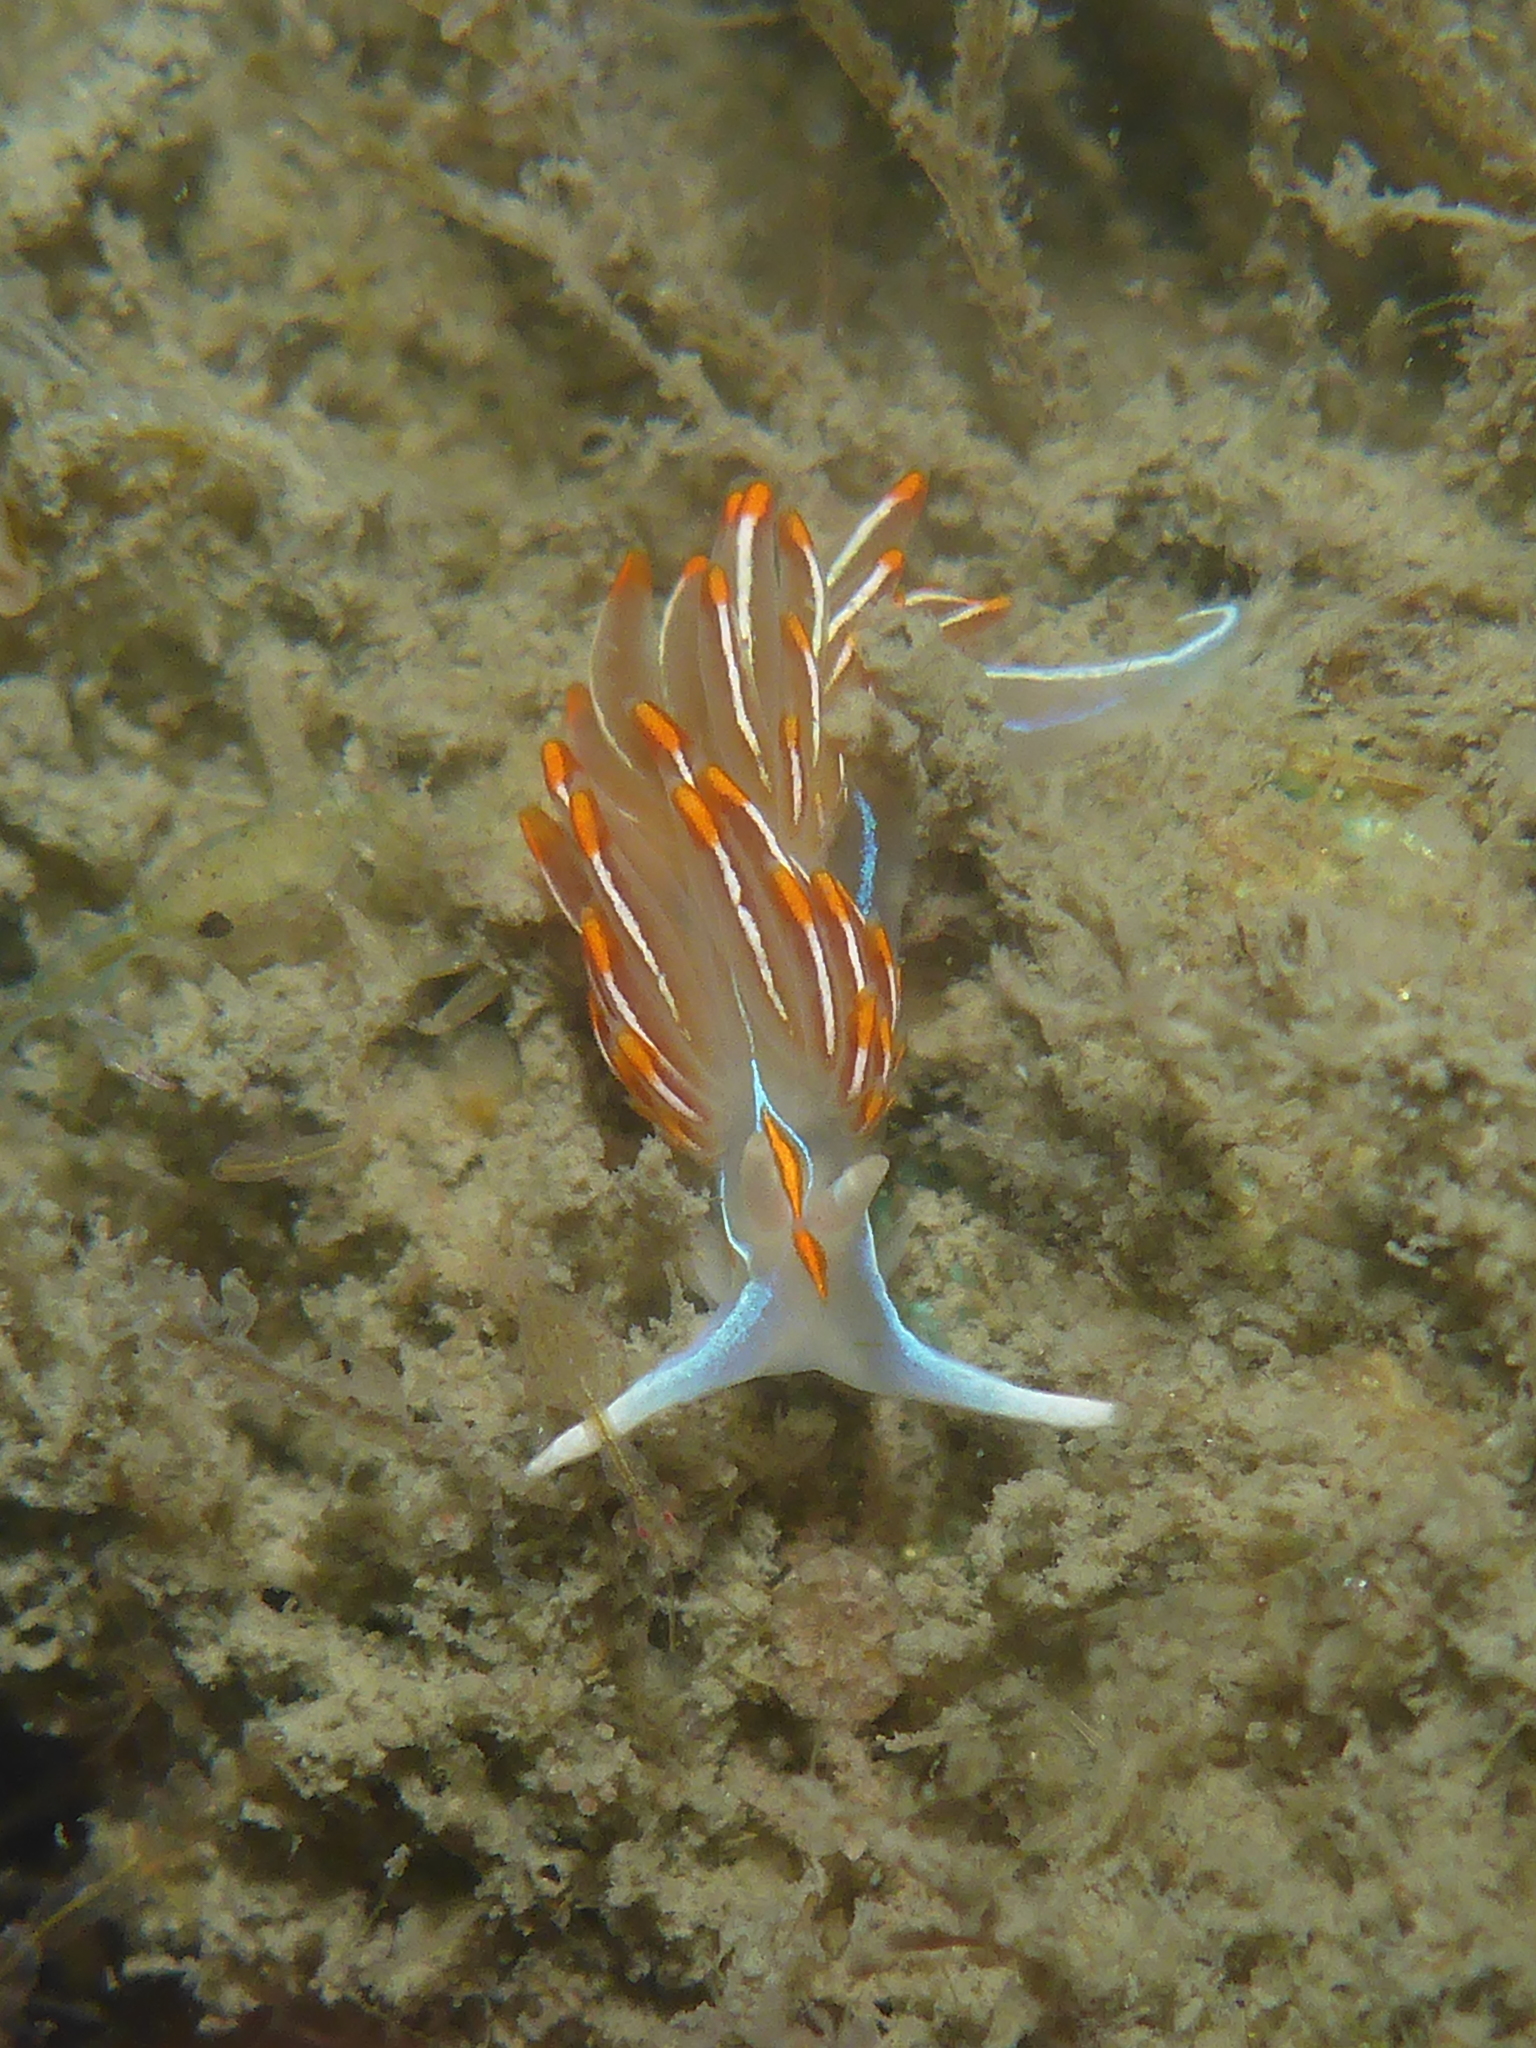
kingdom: Animalia
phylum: Mollusca
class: Gastropoda
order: Nudibranchia
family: Myrrhinidae
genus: Hermissenda
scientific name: Hermissenda crassicornis
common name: Hermissenda
